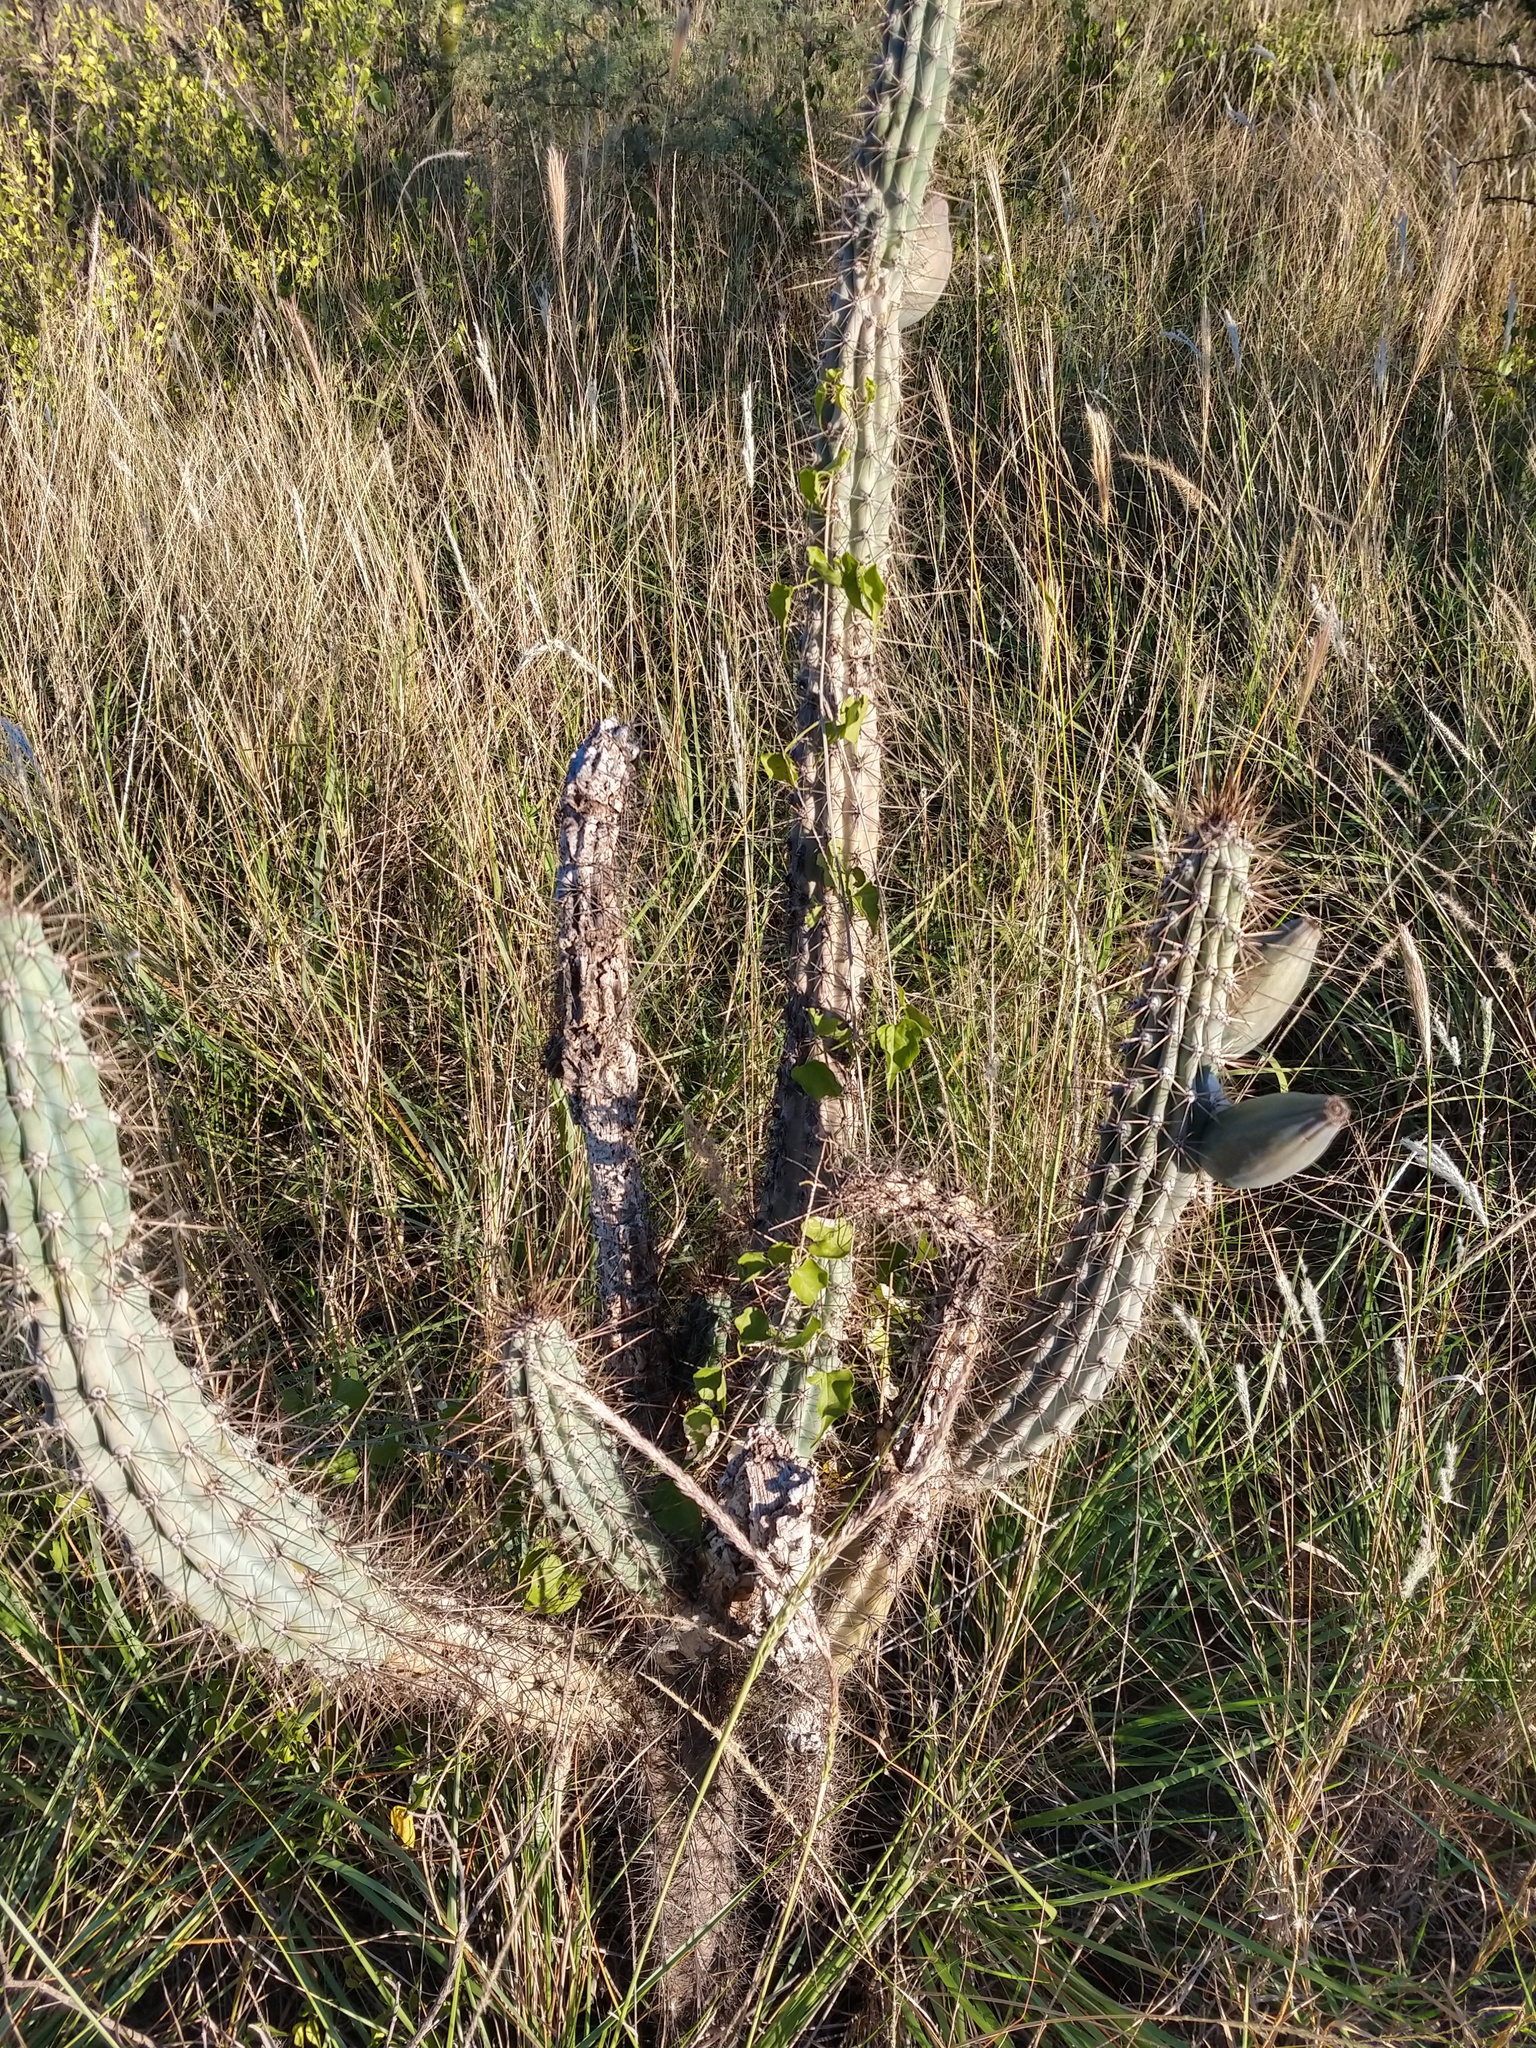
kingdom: Plantae
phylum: Tracheophyta
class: Magnoliopsida
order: Caryophyllales
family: Cactaceae
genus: Cereus
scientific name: Cereus aethiops
